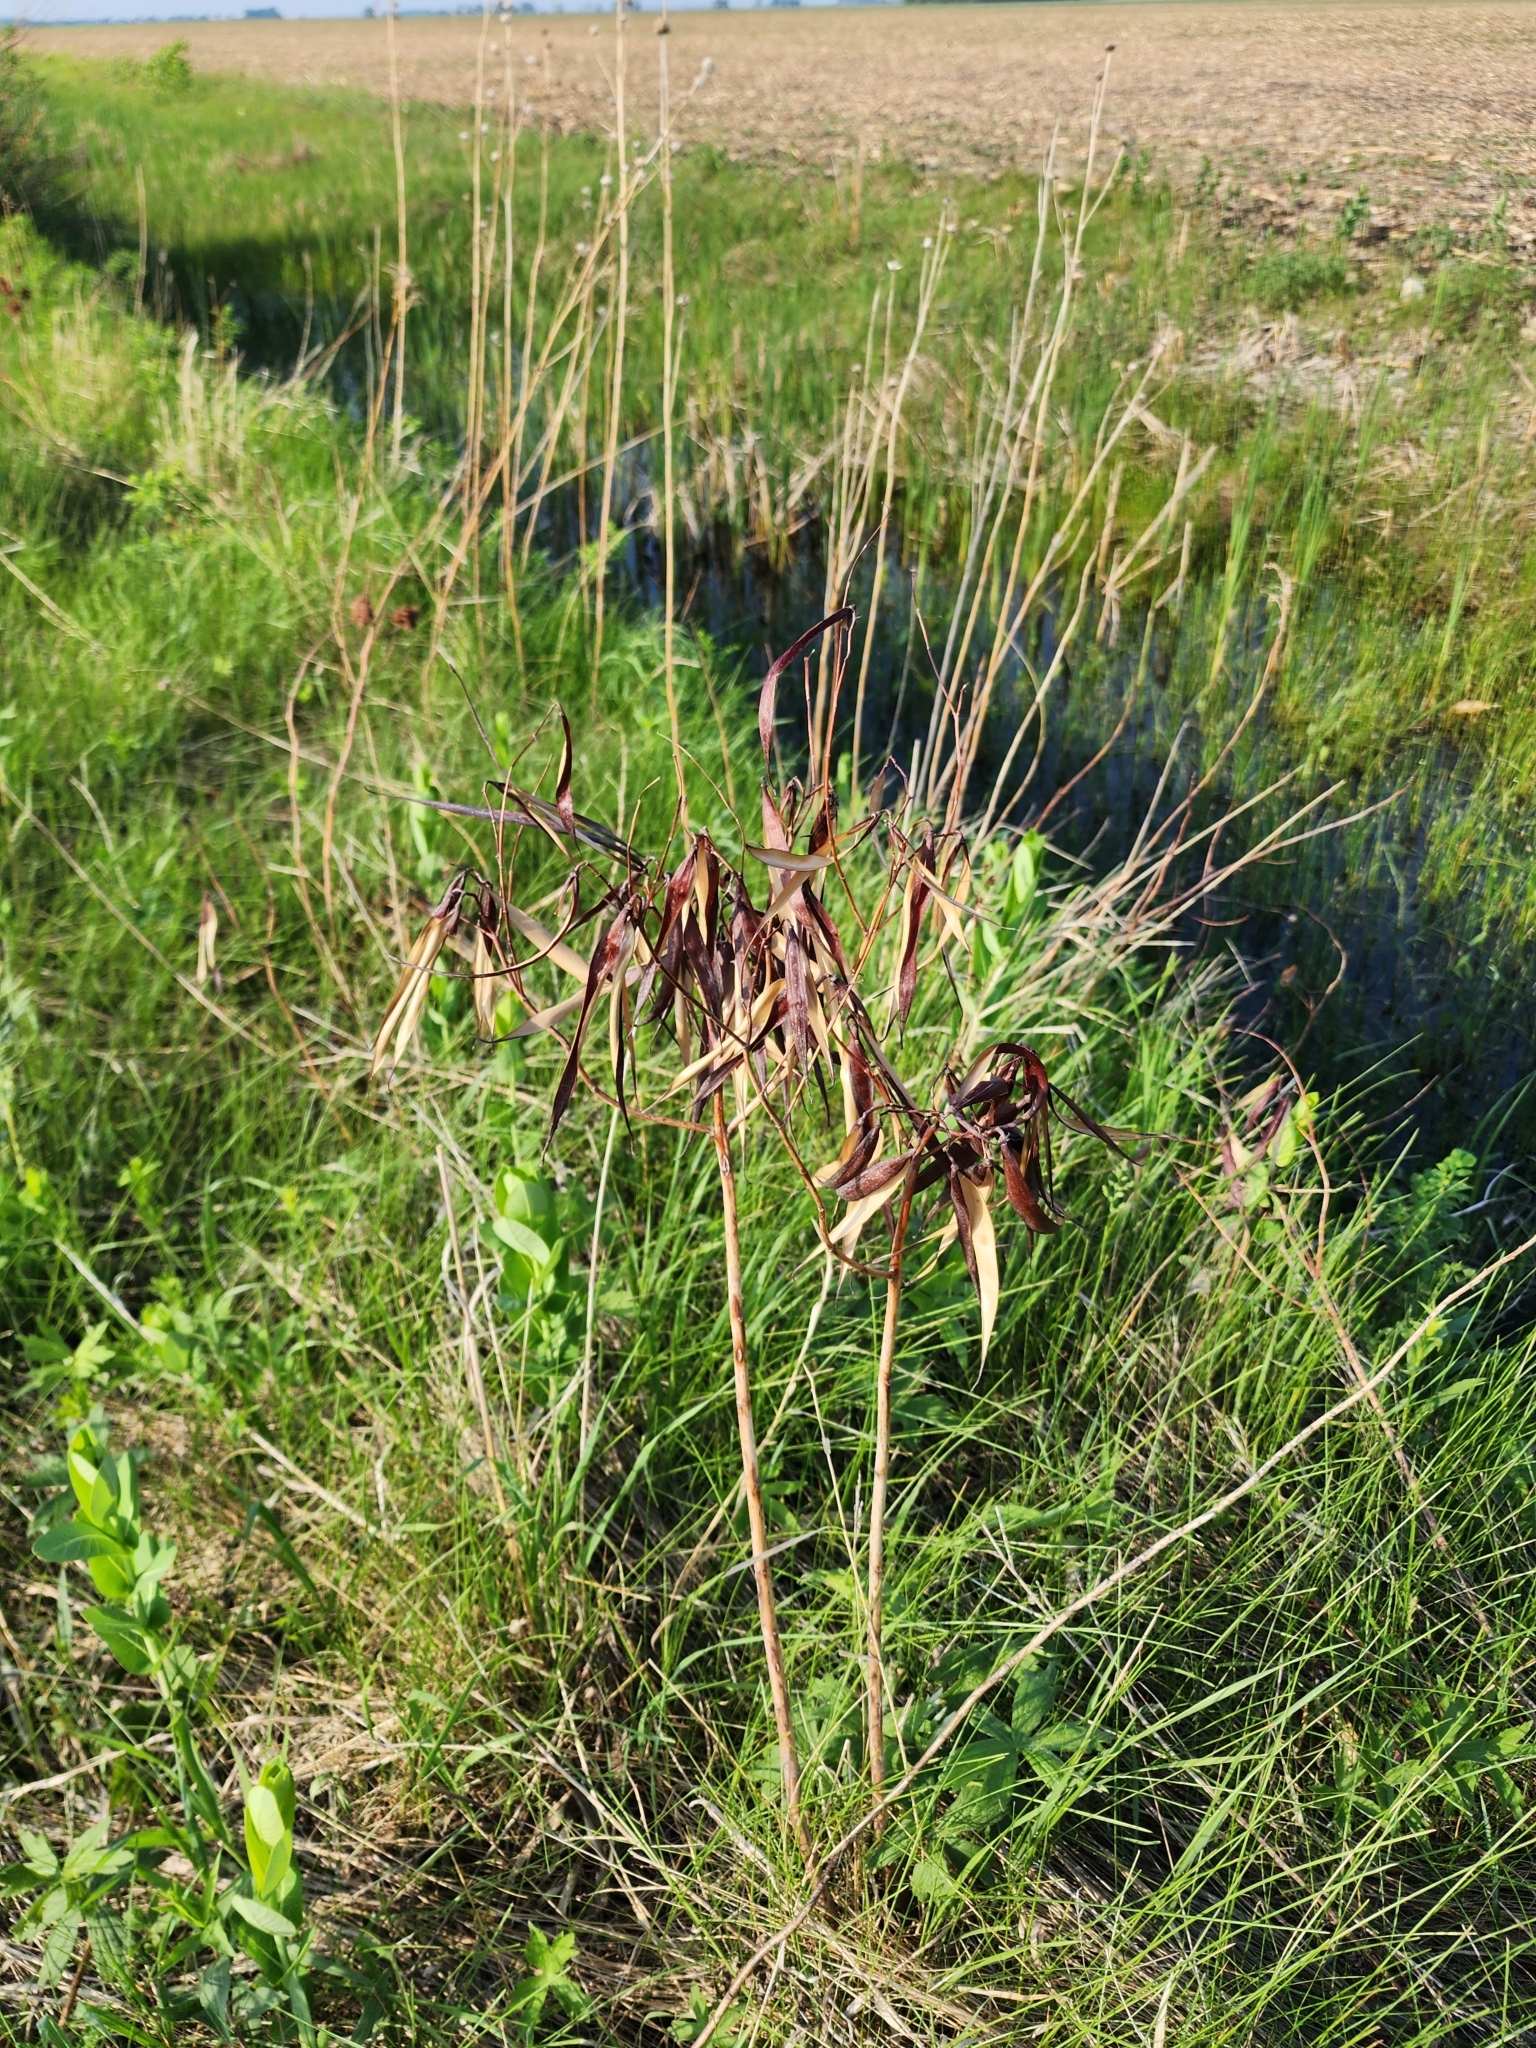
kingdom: Plantae
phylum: Tracheophyta
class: Magnoliopsida
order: Gentianales
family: Apocynaceae
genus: Apocynum
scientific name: Apocynum cannabinum
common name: Hemp dogbane
